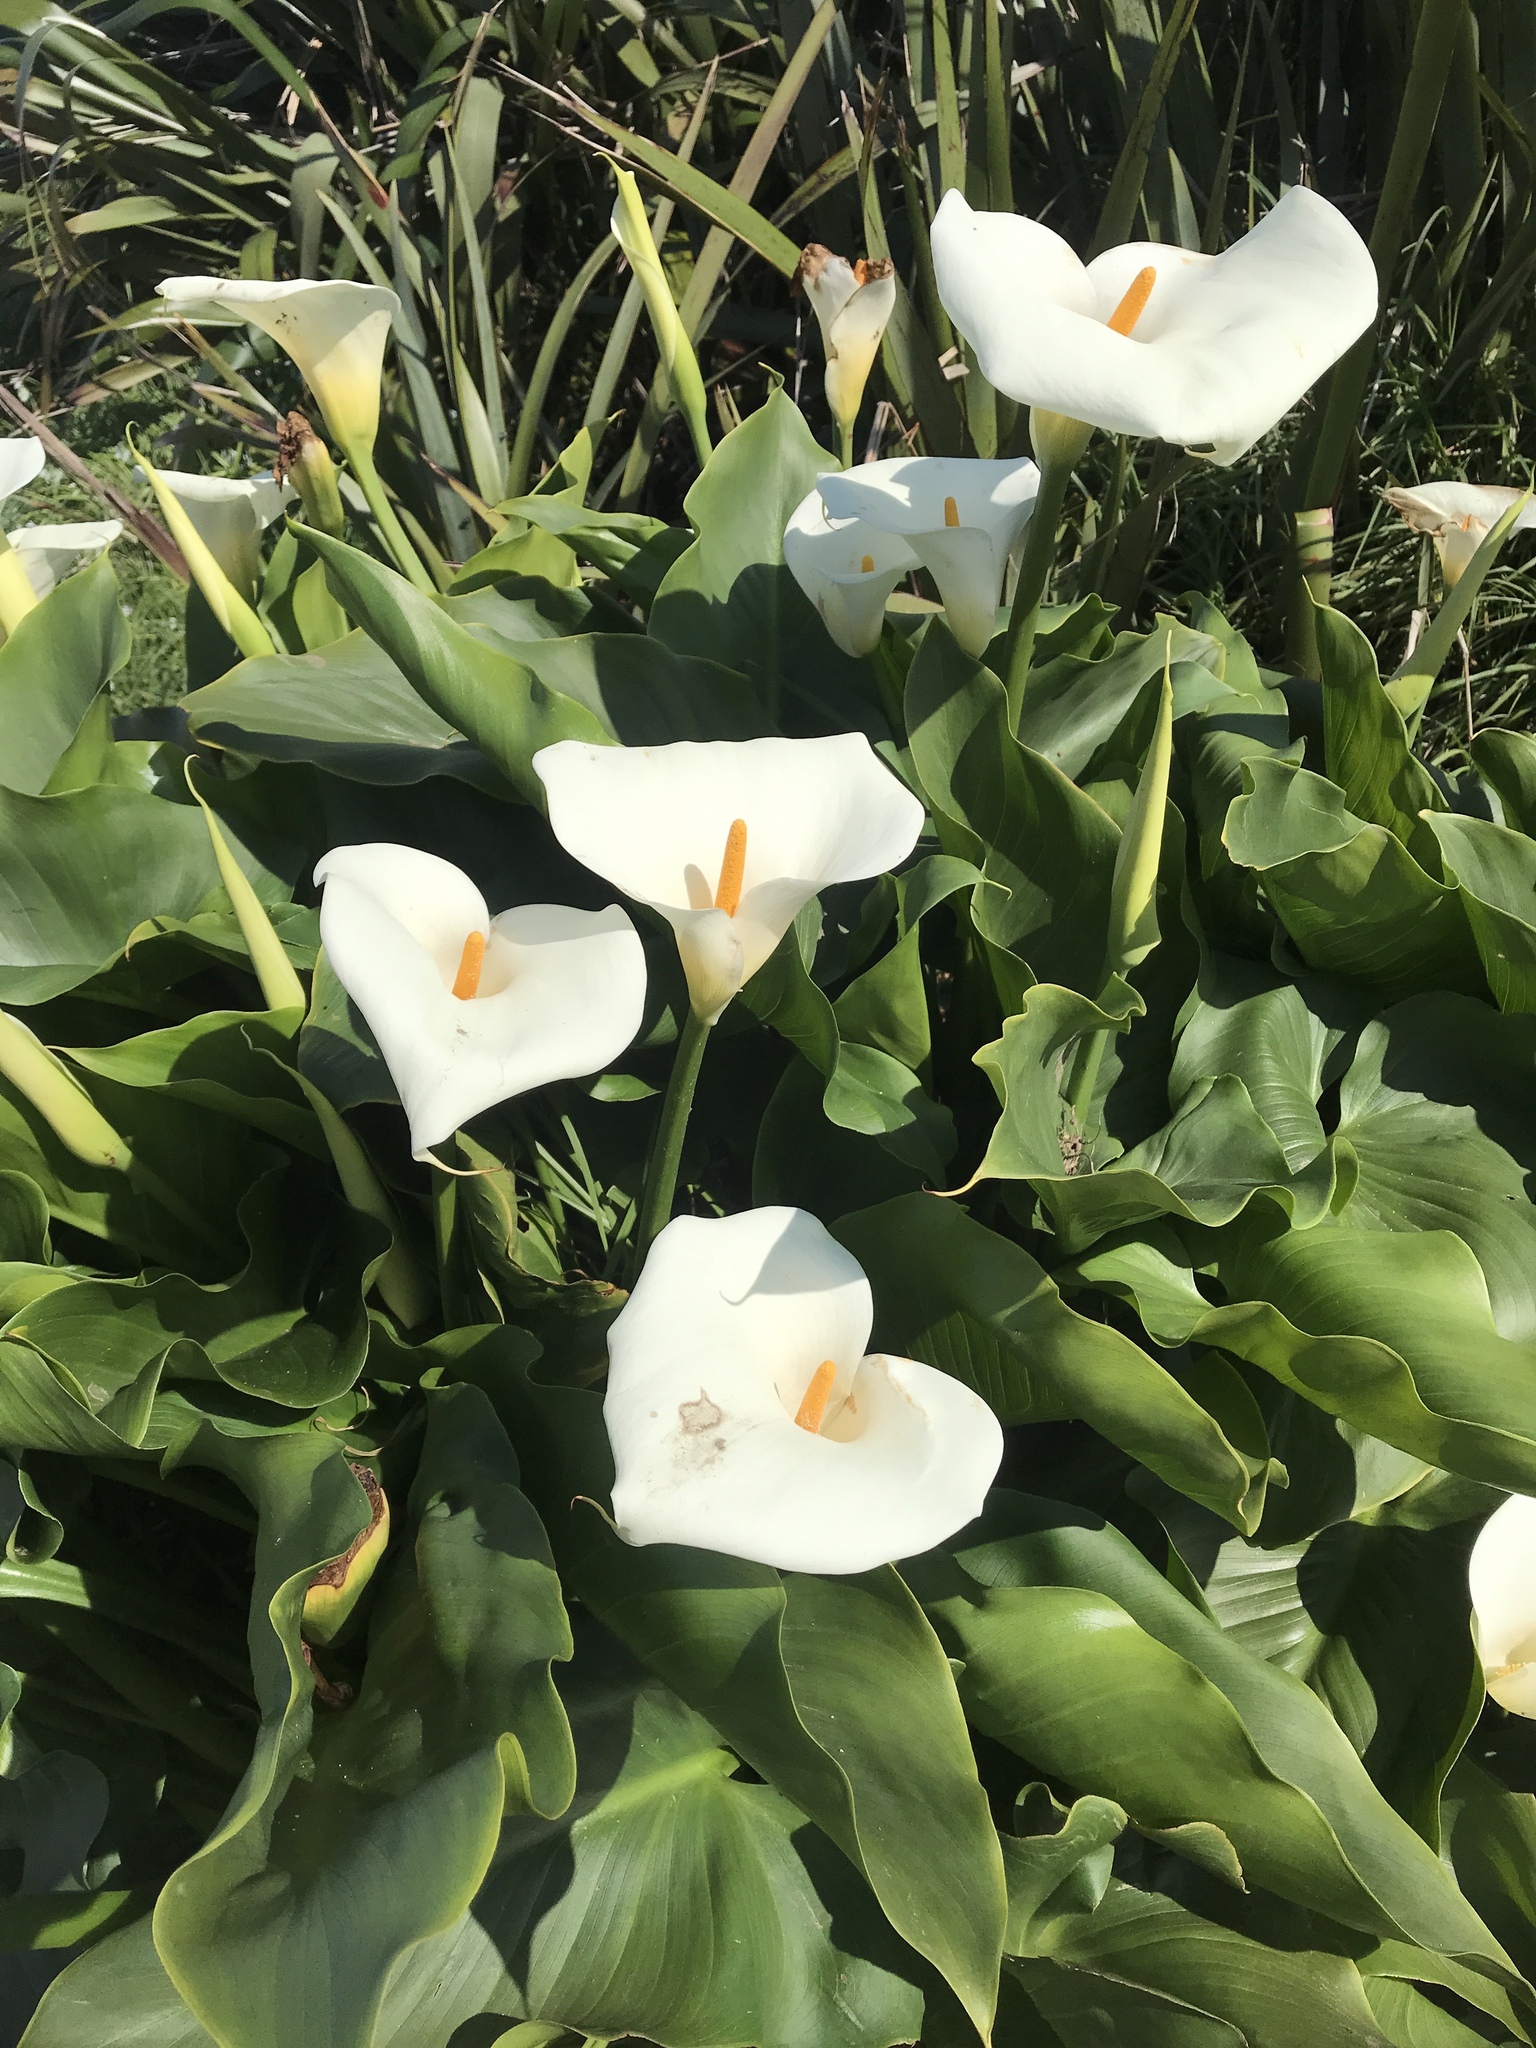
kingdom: Plantae
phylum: Tracheophyta
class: Liliopsida
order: Alismatales
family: Araceae
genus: Zantedeschia
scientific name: Zantedeschia aethiopica
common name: Altar-lily
